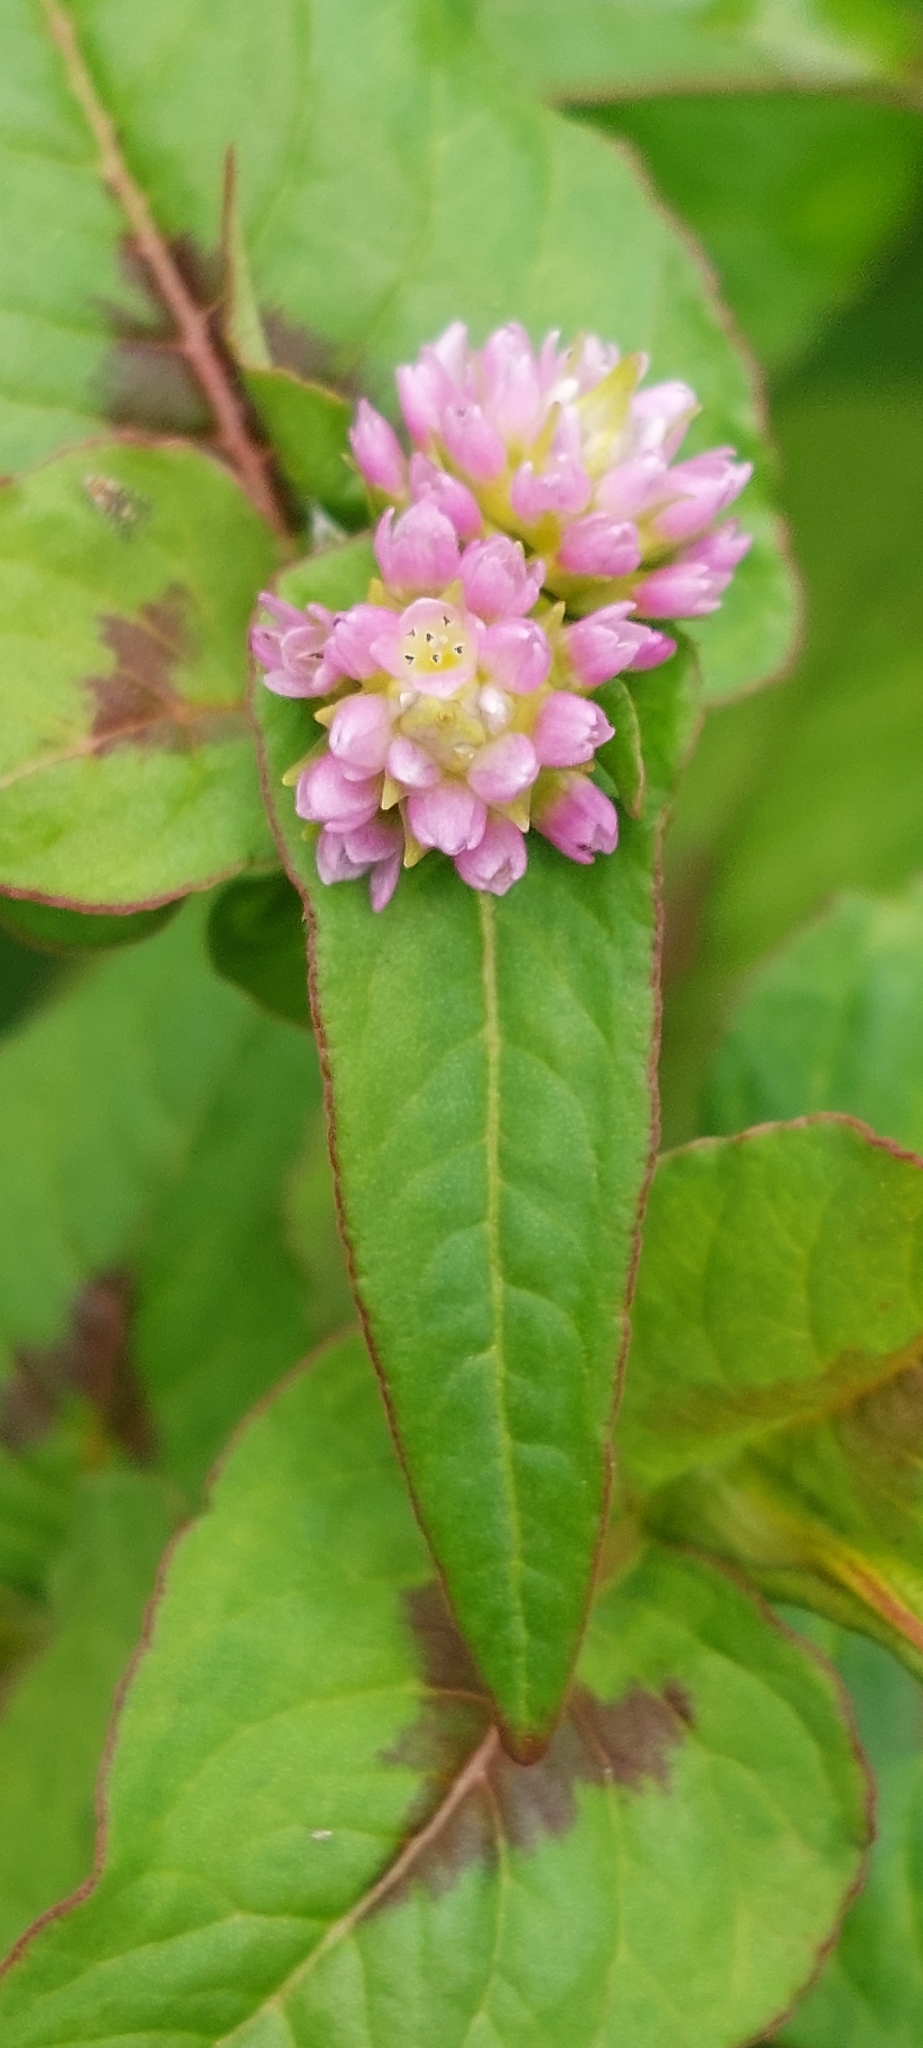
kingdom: Plantae
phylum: Tracheophyta
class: Magnoliopsida
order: Caryophyllales
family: Polygonaceae
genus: Persicaria
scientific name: Persicaria nepalensis
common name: Nepal persicaria
